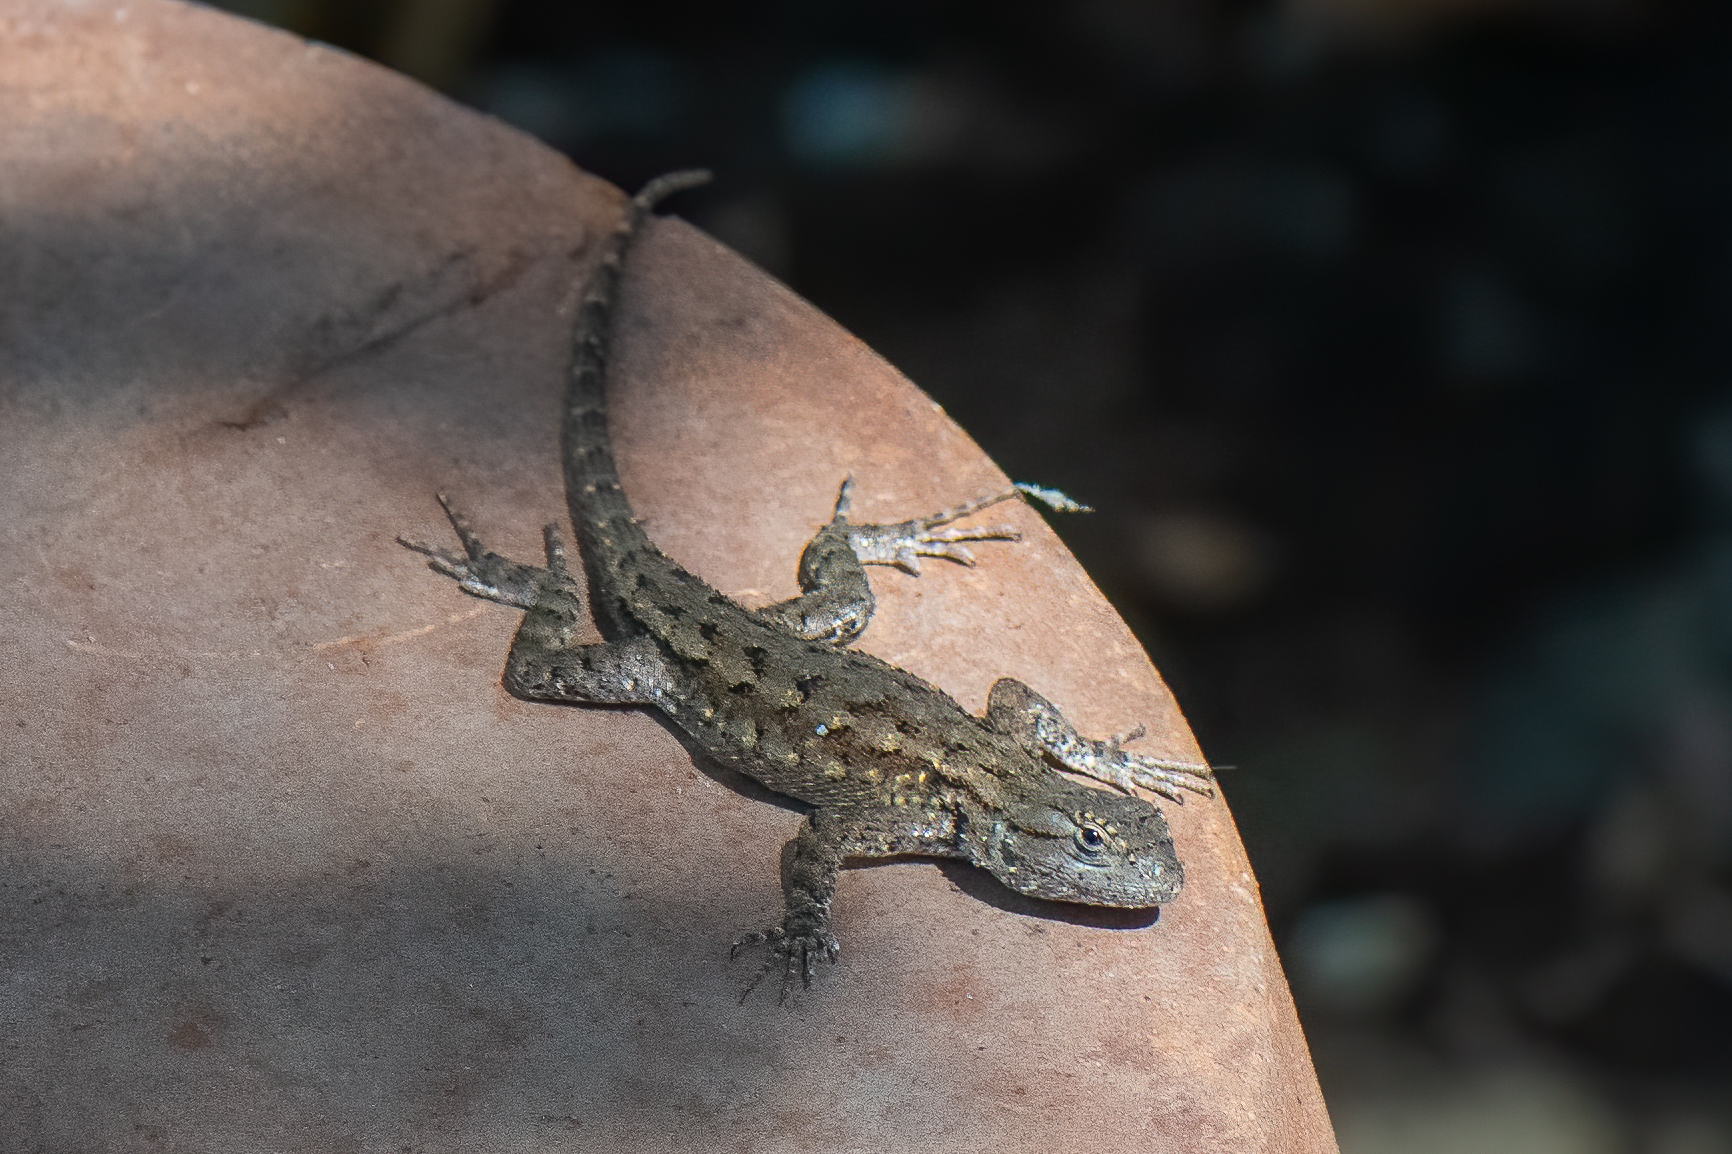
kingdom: Animalia
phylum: Chordata
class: Squamata
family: Phrynosomatidae
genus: Sceloporus
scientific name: Sceloporus occidentalis
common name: Western fence lizard
